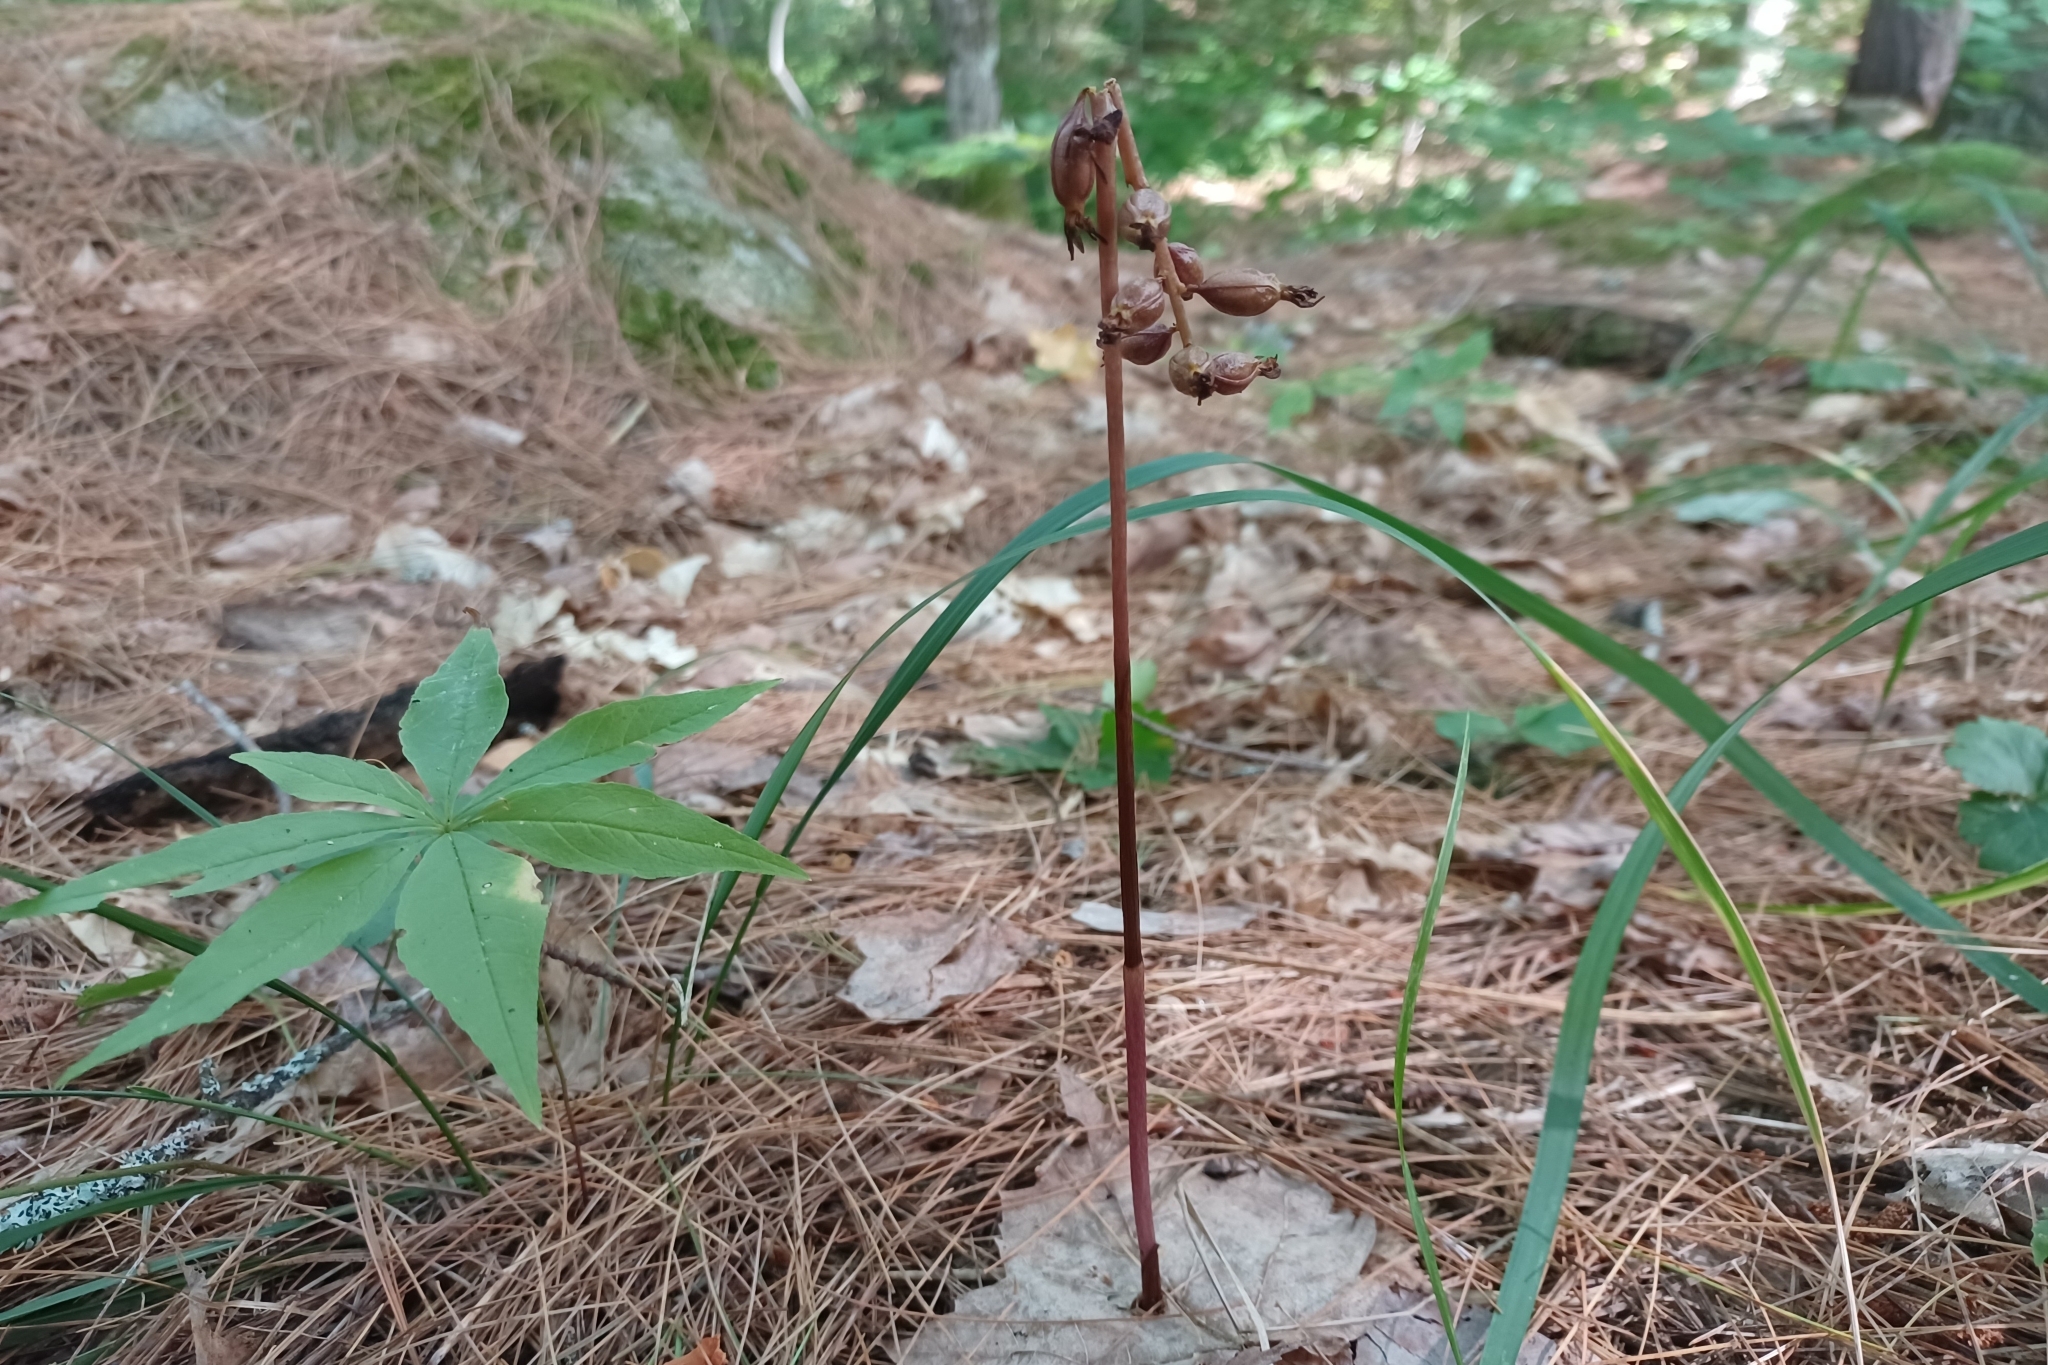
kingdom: Plantae
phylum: Tracheophyta
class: Liliopsida
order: Asparagales
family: Orchidaceae
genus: Corallorhiza
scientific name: Corallorhiza maculata
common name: Spotted coralroot
